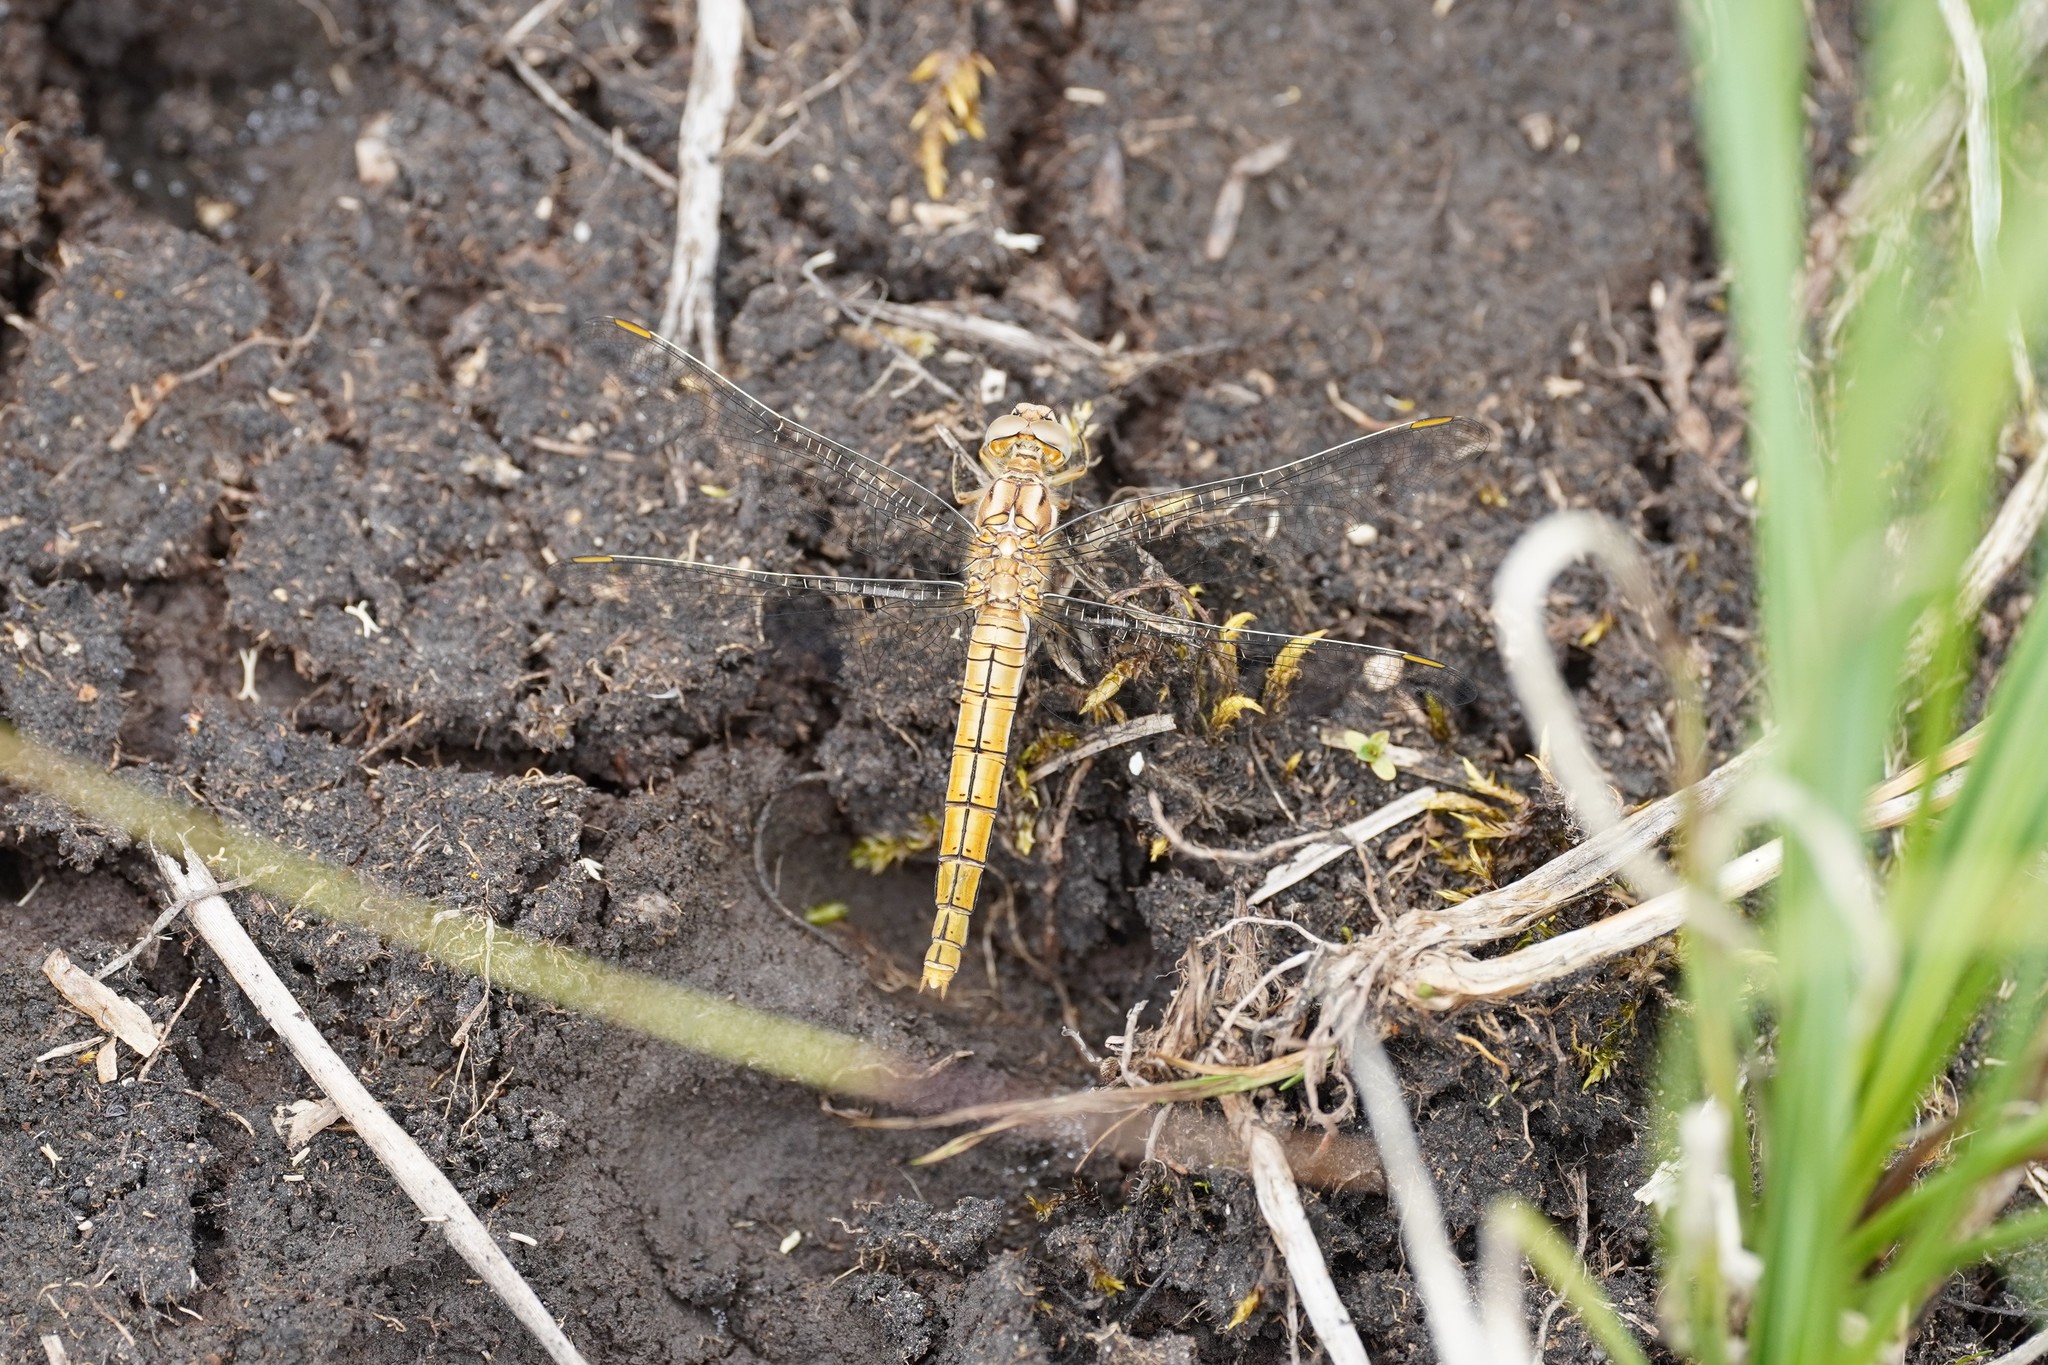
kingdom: Animalia
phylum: Arthropoda
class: Insecta
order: Odonata
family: Libellulidae
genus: Orthetrum
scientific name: Orthetrum brunneum
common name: Southern skimmer
